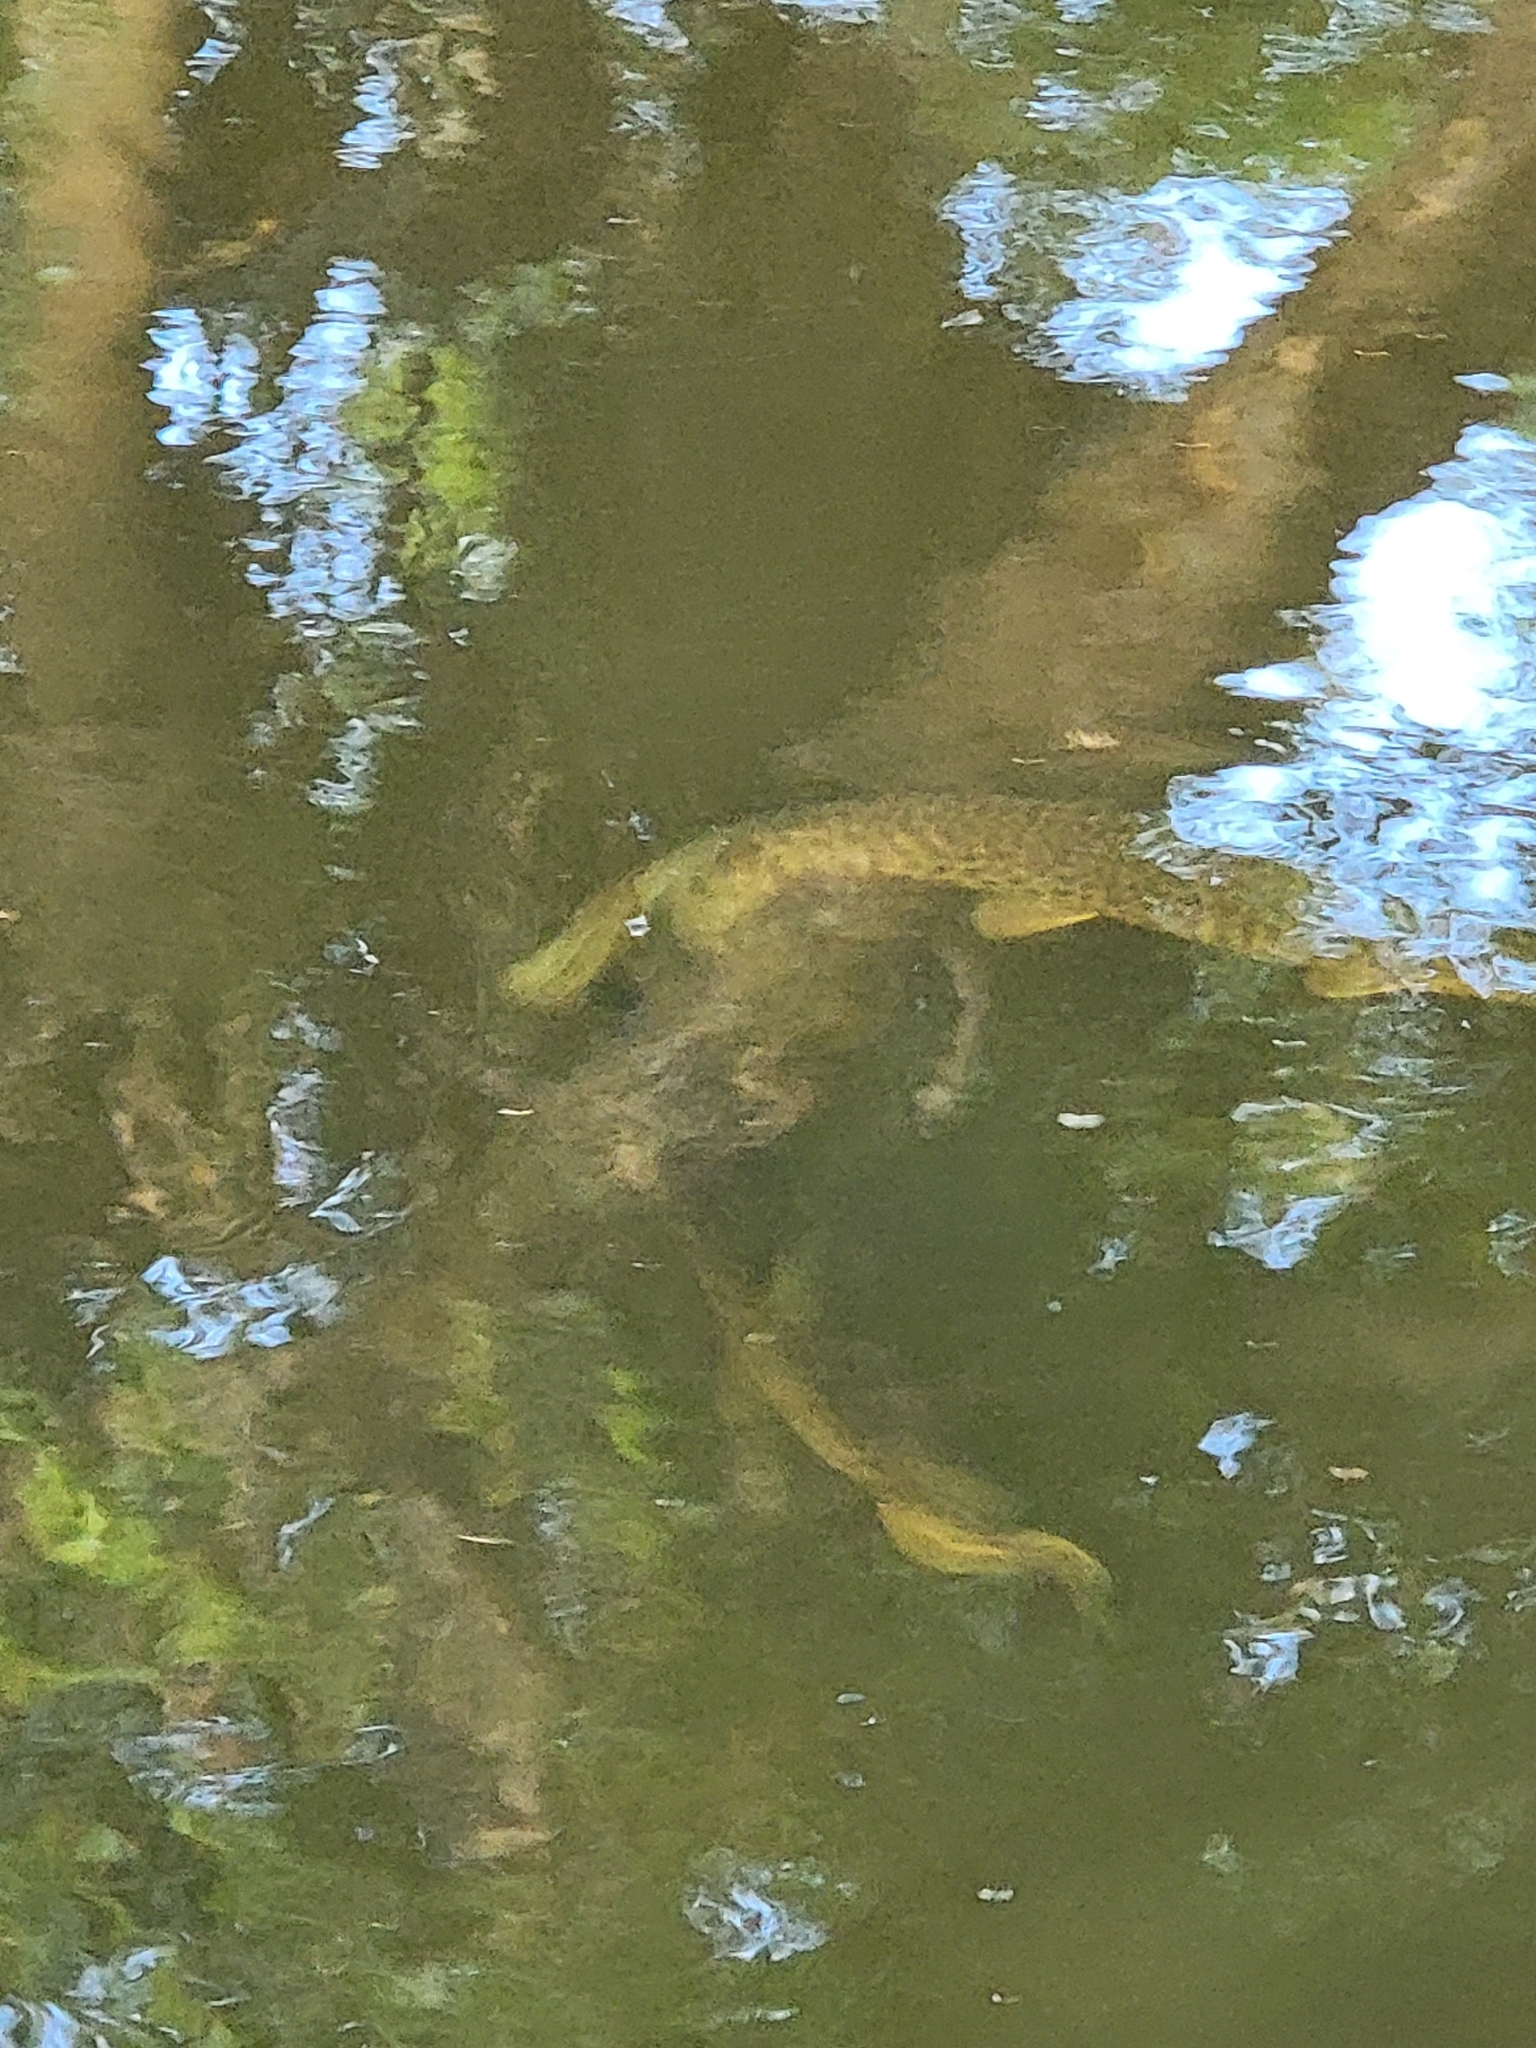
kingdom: Animalia
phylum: Chordata
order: Lepisosteiformes
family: Lepisosteidae
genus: Lepisosteus
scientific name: Lepisosteus platyrhincus
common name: Florida gar
